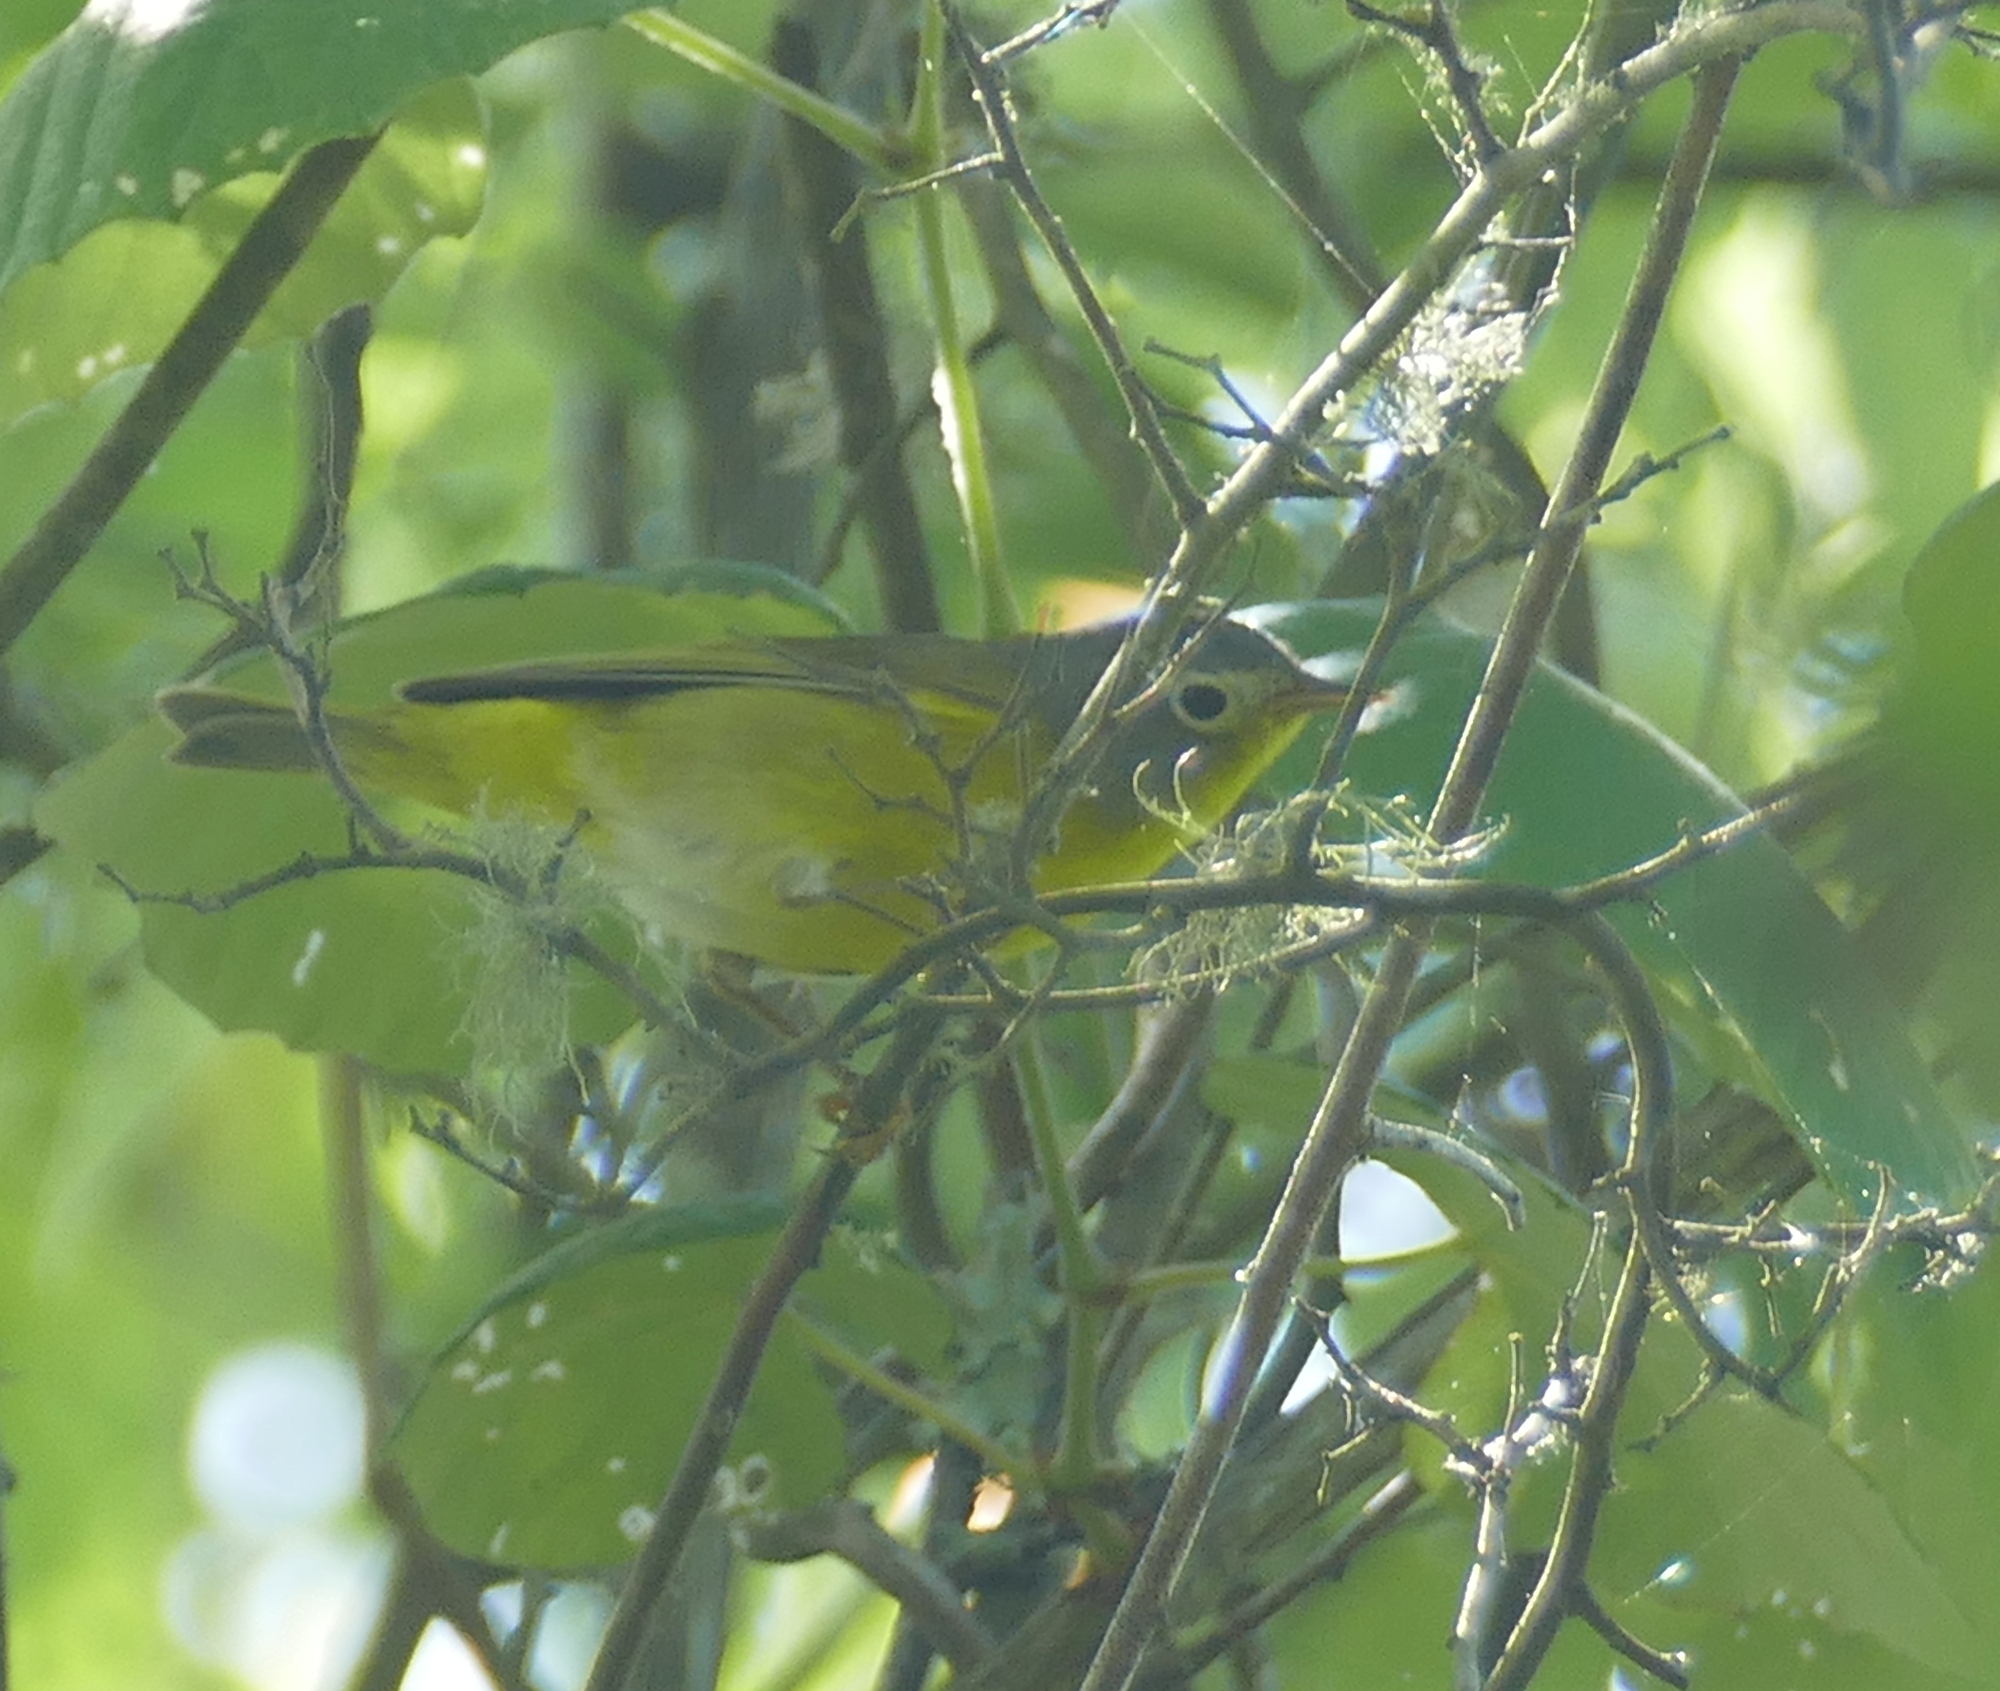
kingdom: Animalia
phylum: Chordata
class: Aves
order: Passeriformes
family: Parulidae
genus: Leiothlypis
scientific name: Leiothlypis ruficapilla
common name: Nashville warbler
